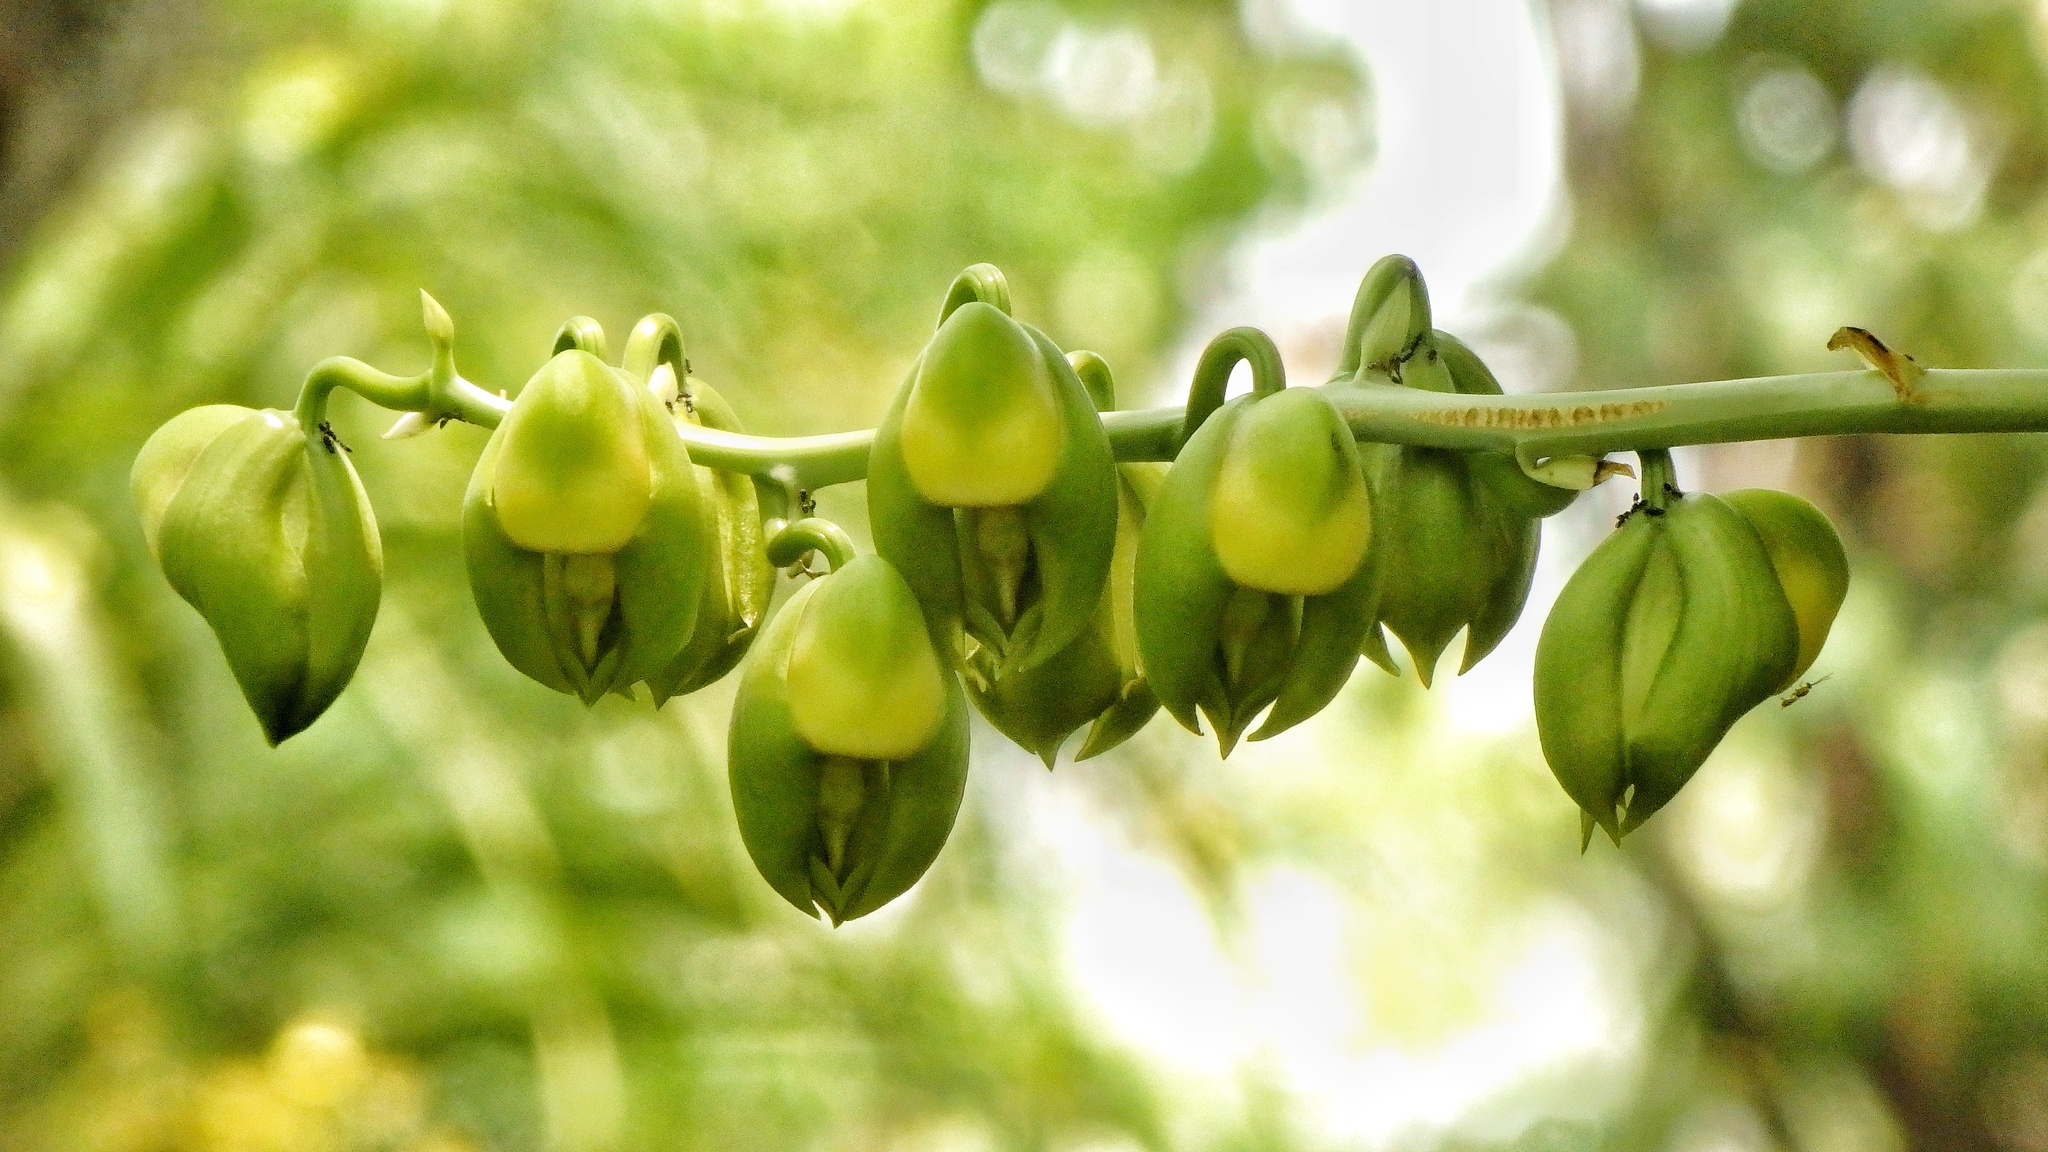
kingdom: Plantae
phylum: Tracheophyta
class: Liliopsida
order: Asparagales
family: Orchidaceae
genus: Catasetum
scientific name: Catasetum integerrimum
